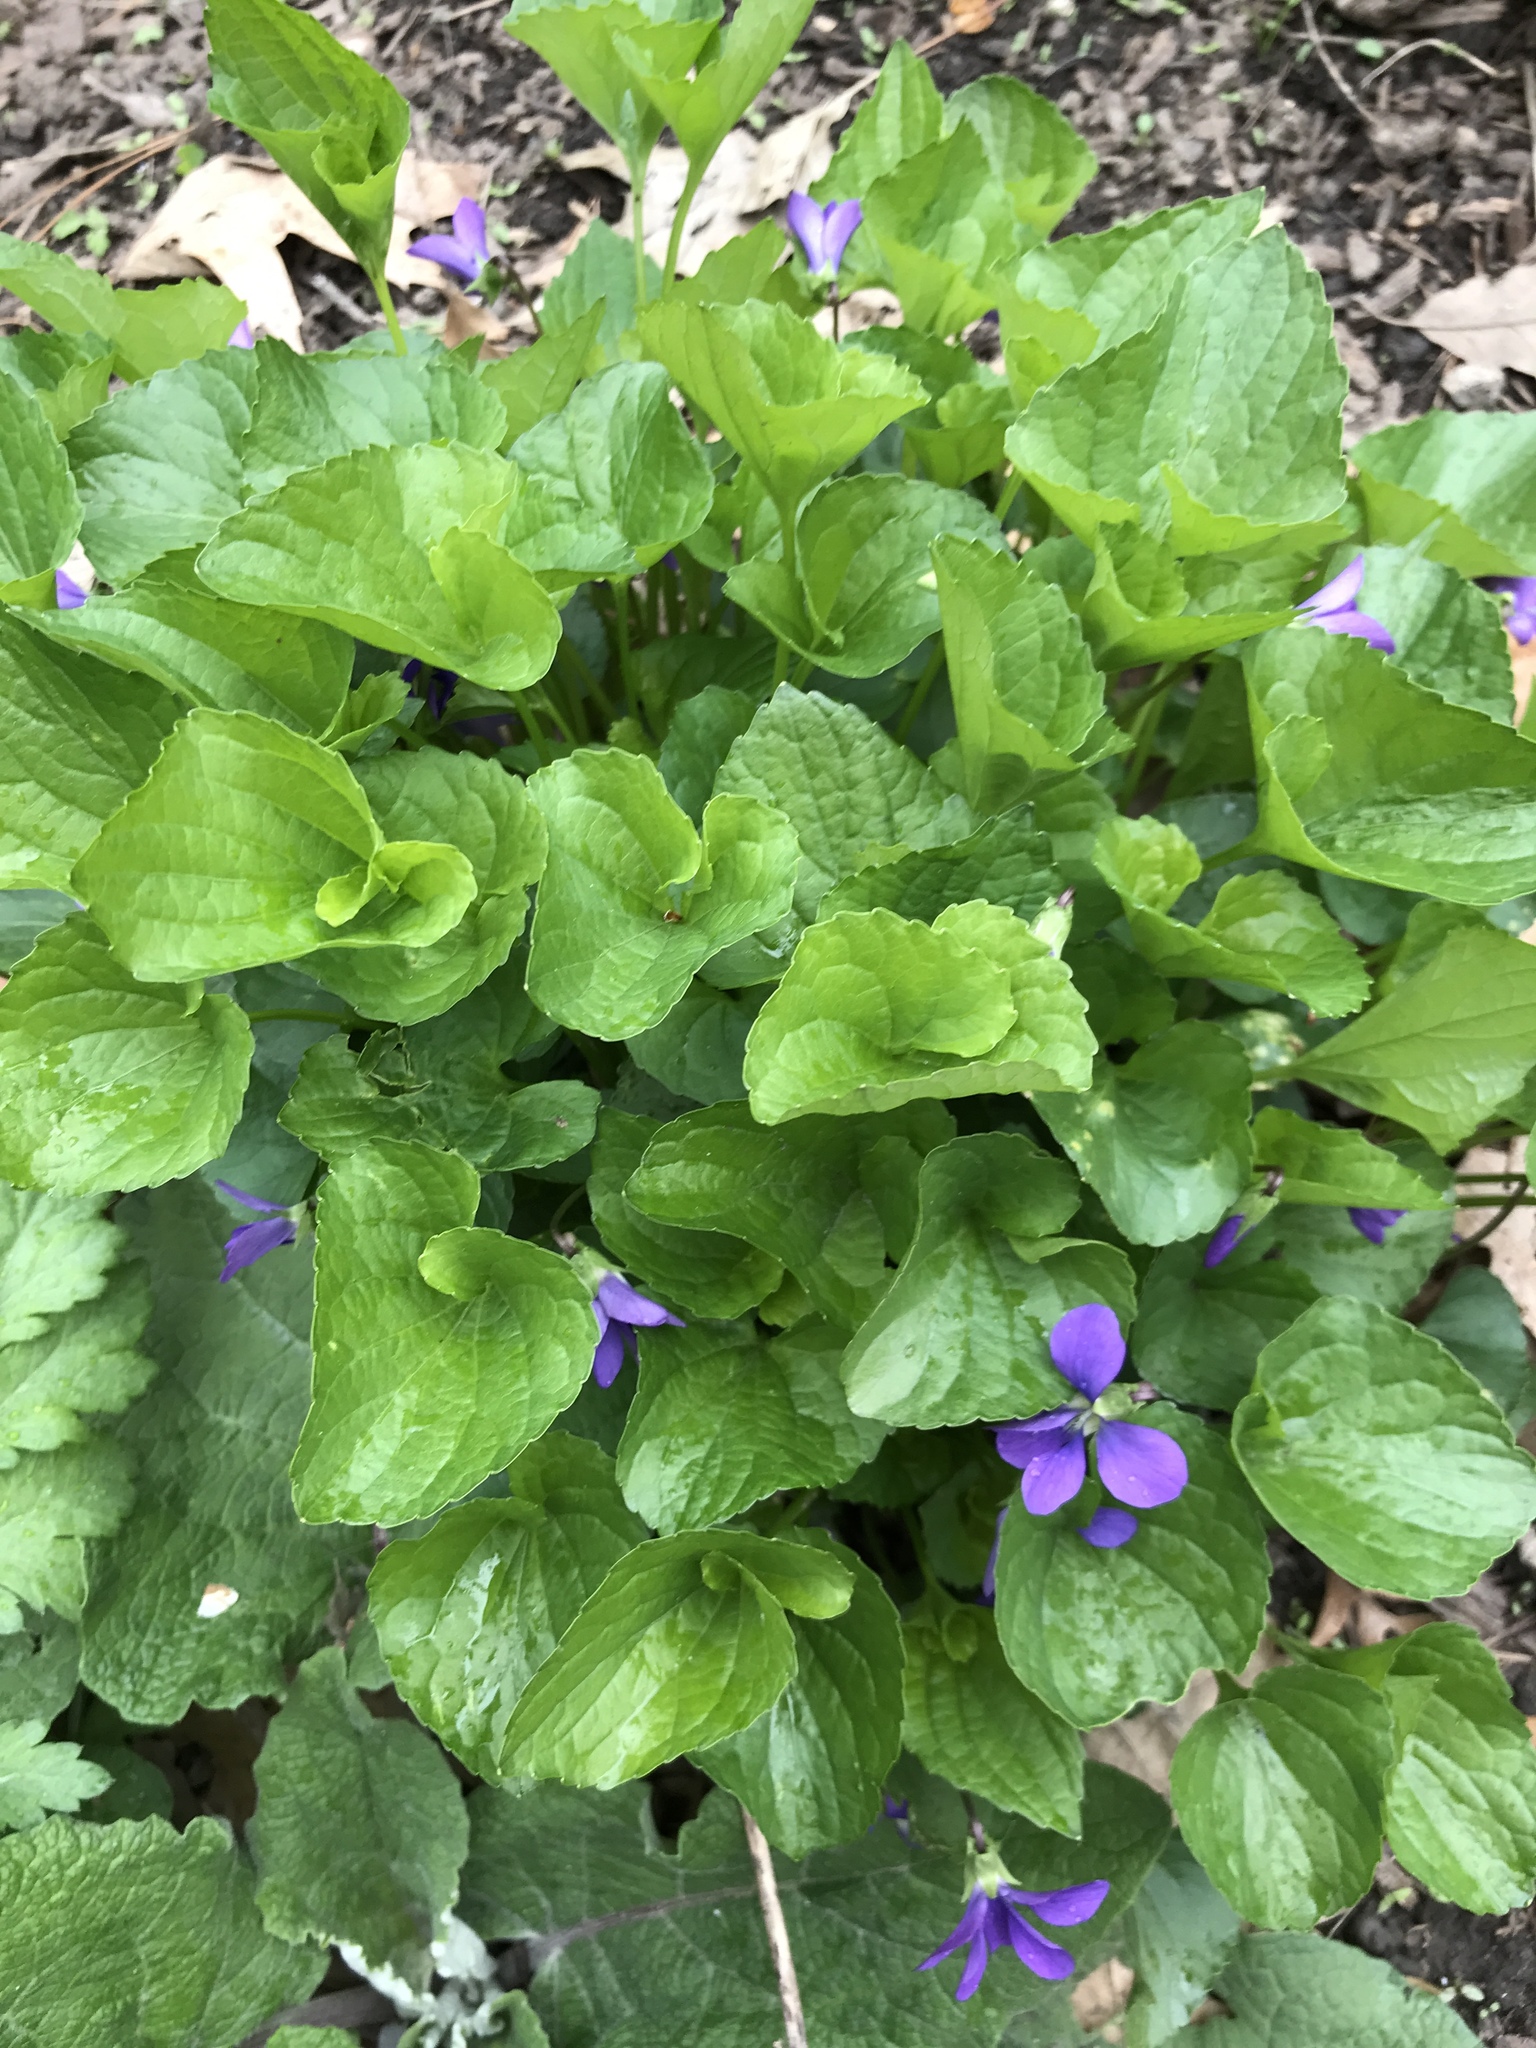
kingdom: Plantae
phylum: Tracheophyta
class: Magnoliopsida
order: Malpighiales
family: Violaceae
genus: Viola
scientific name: Viola sororia
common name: Dooryard violet
